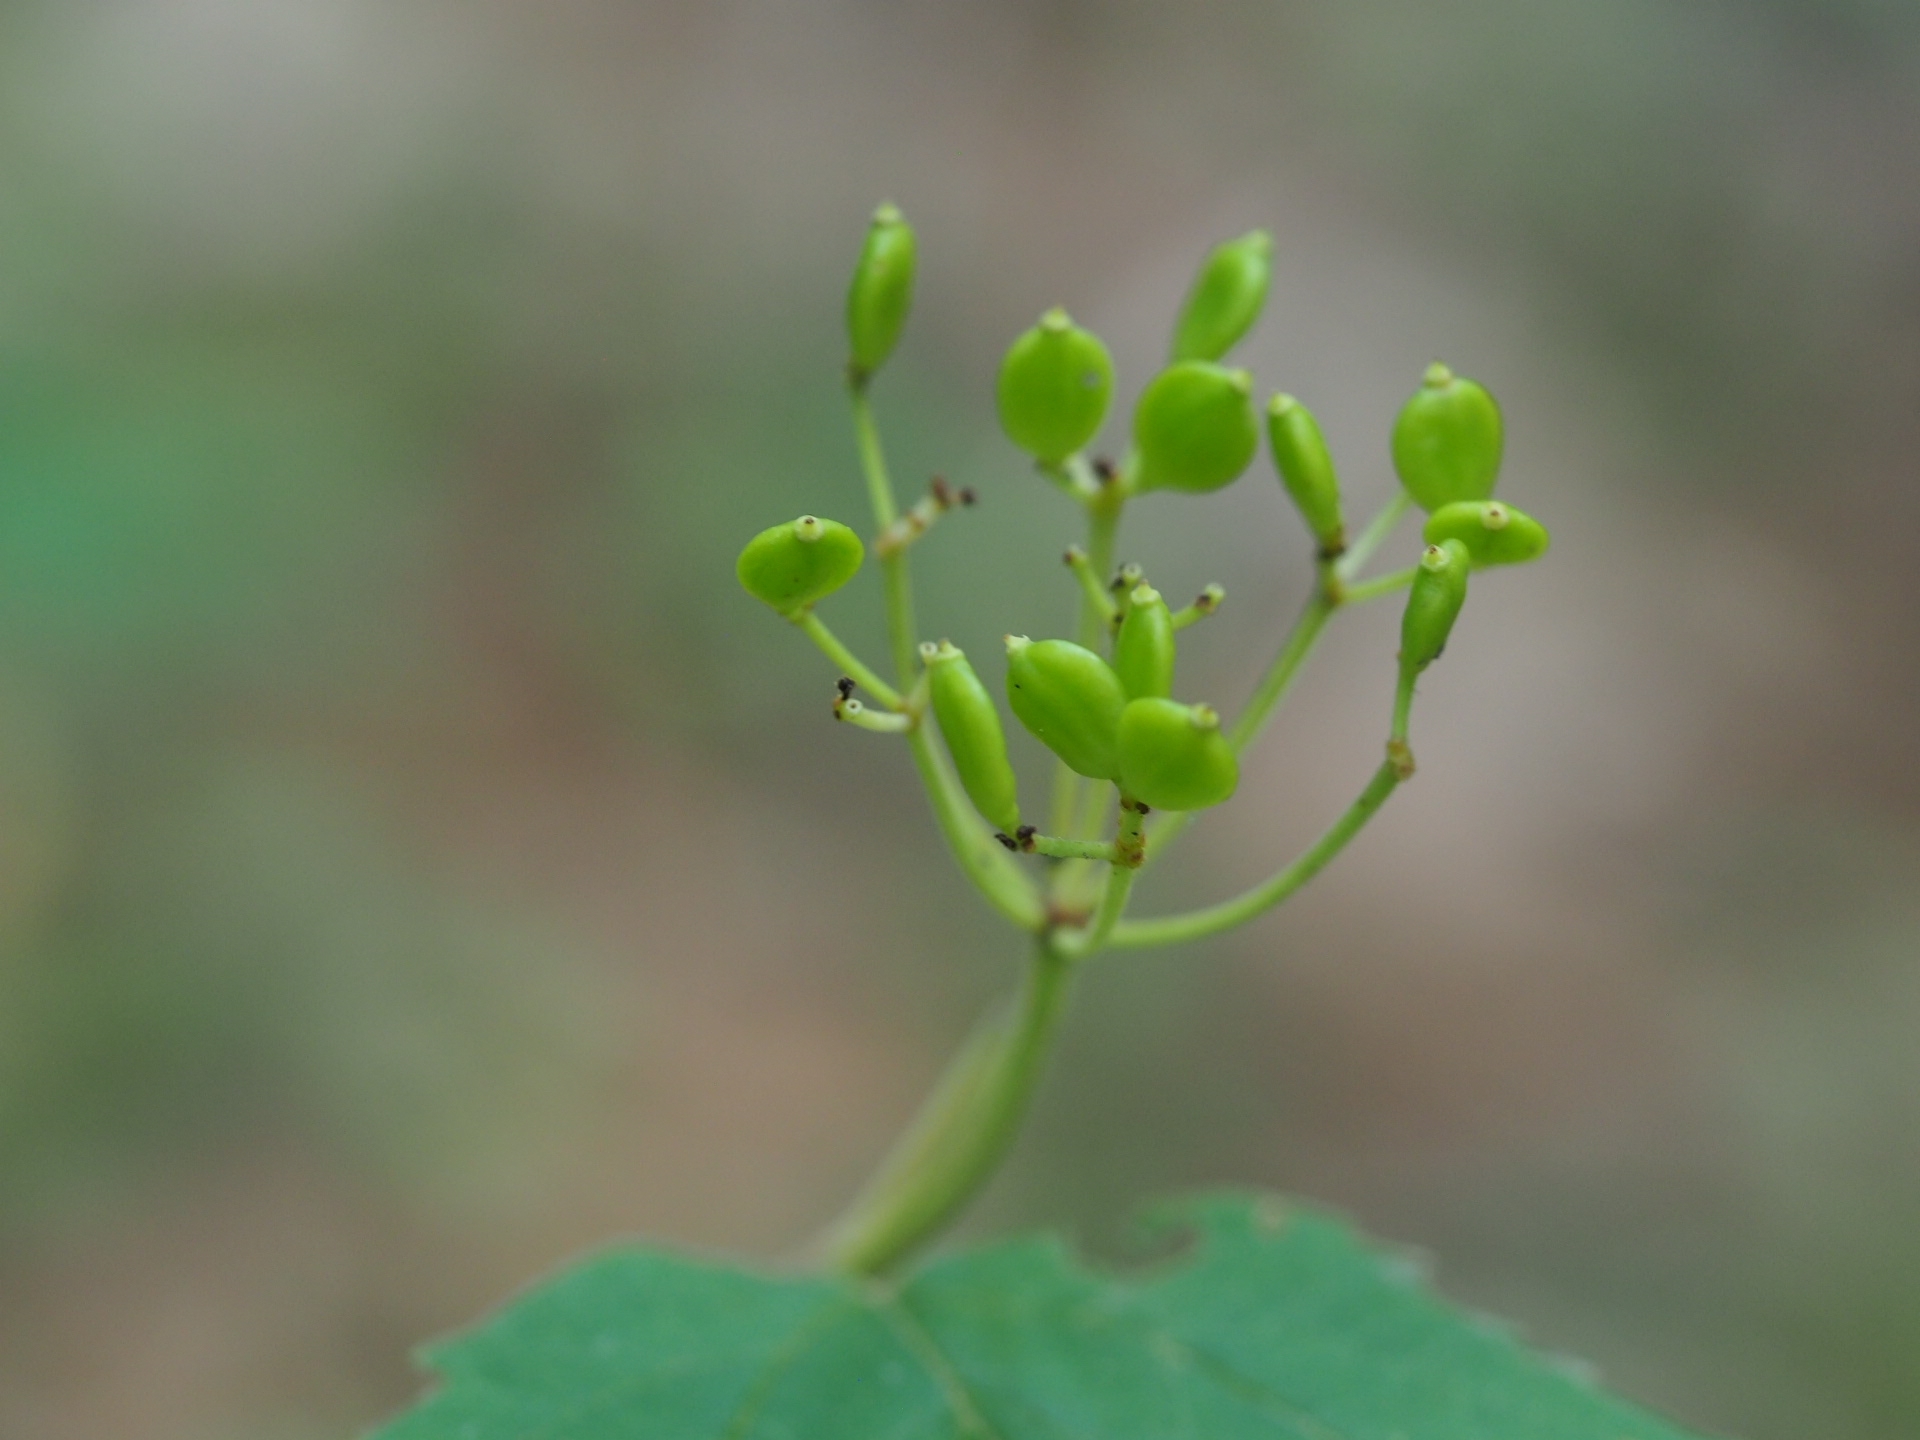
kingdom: Plantae
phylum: Tracheophyta
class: Magnoliopsida
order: Dipsacales
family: Viburnaceae
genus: Viburnum
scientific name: Viburnum acerifolium
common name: Dockmackie
